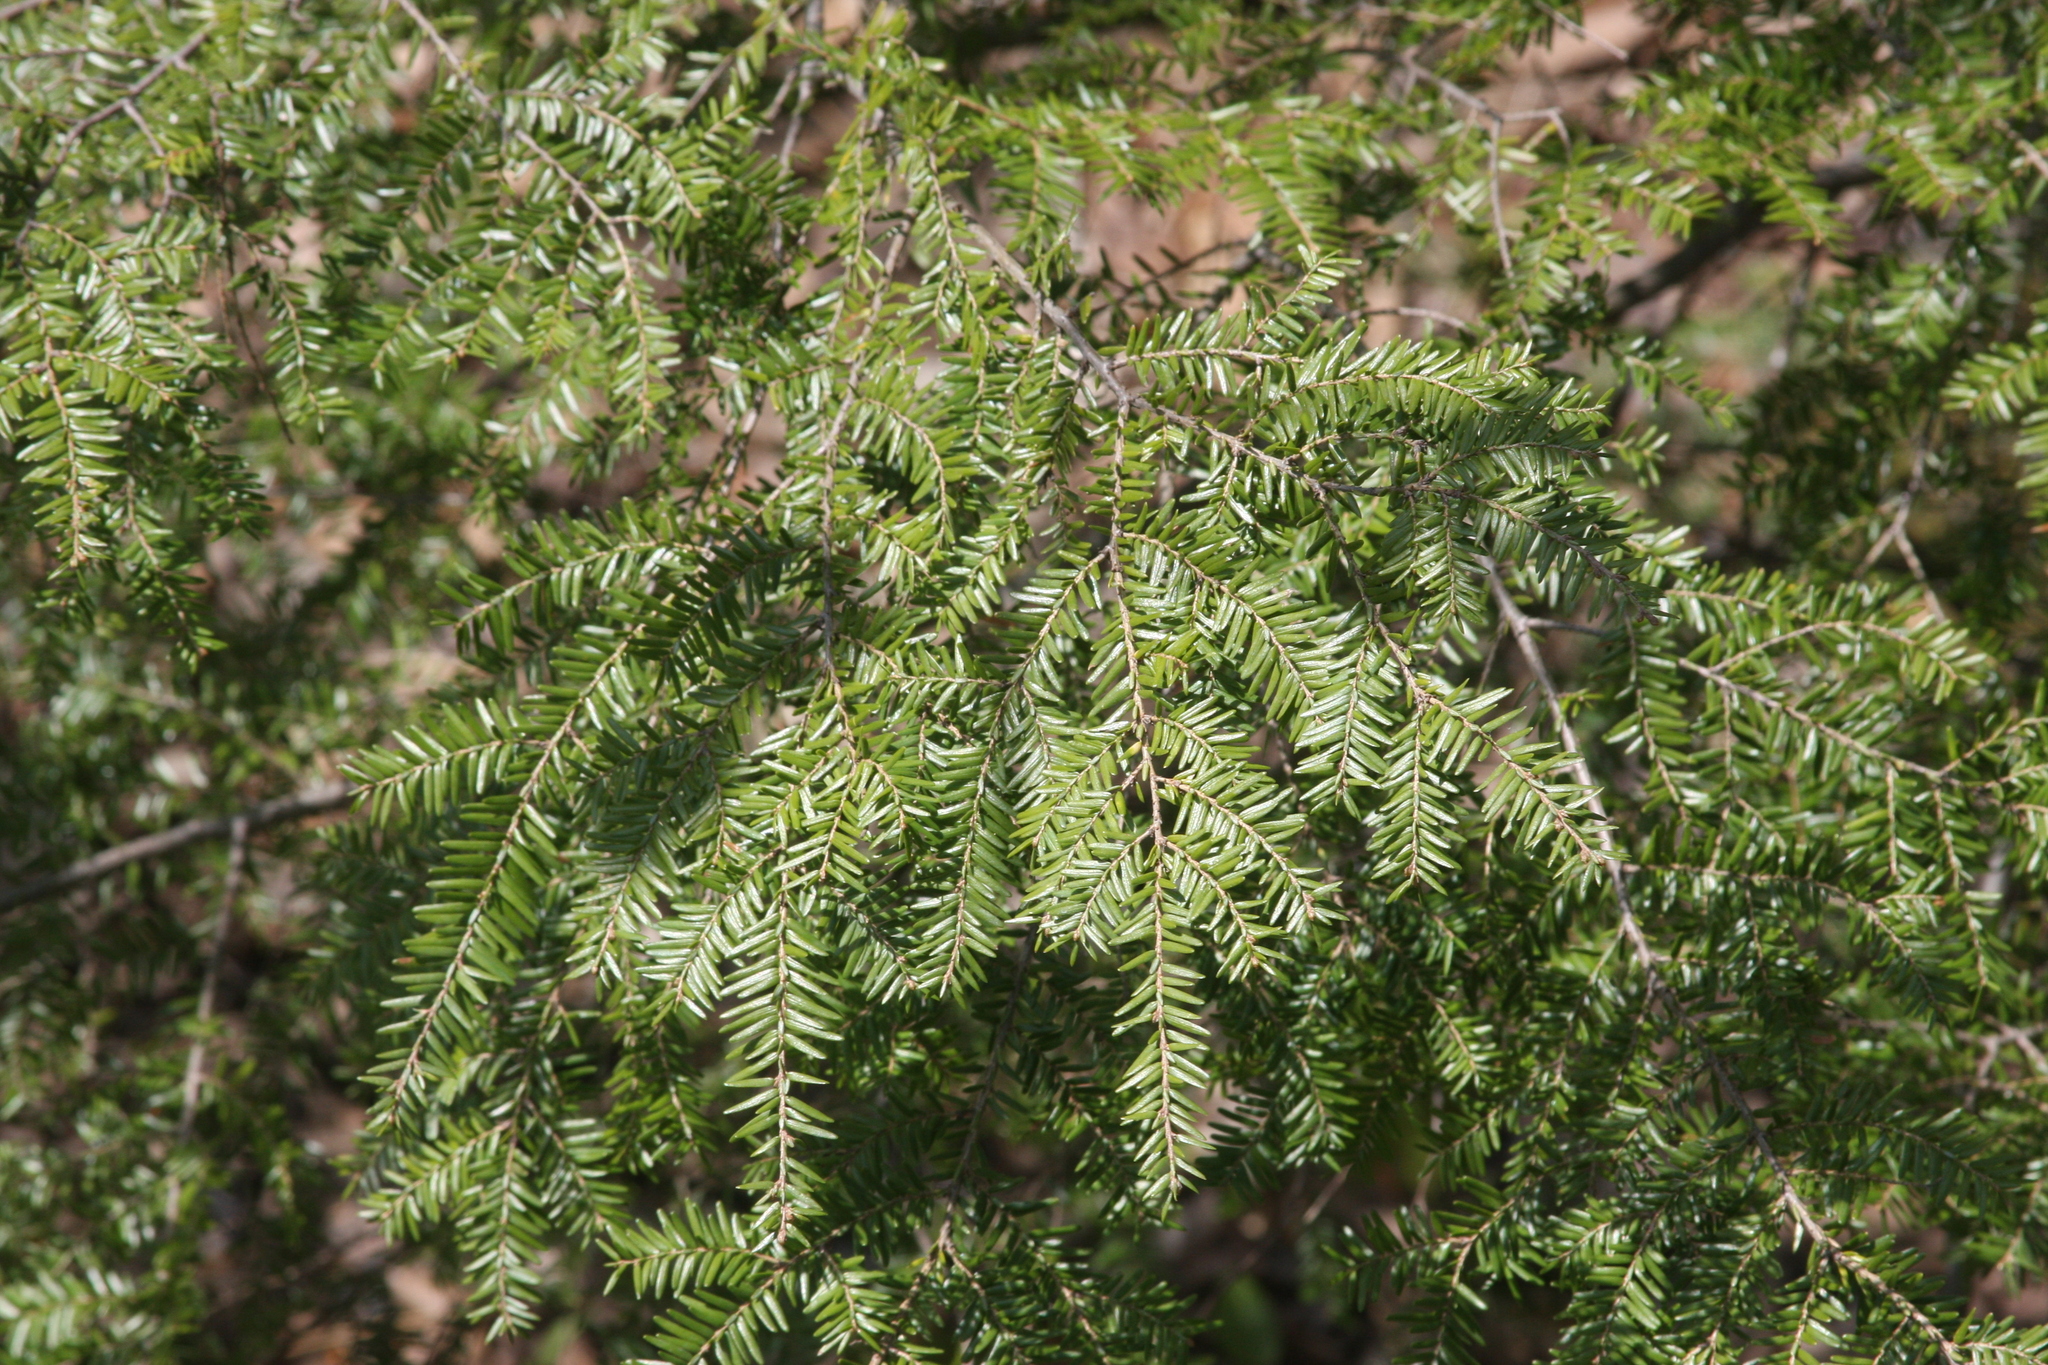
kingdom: Plantae
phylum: Tracheophyta
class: Pinopsida
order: Pinales
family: Pinaceae
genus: Tsuga
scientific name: Tsuga canadensis
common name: Eastern hemlock
